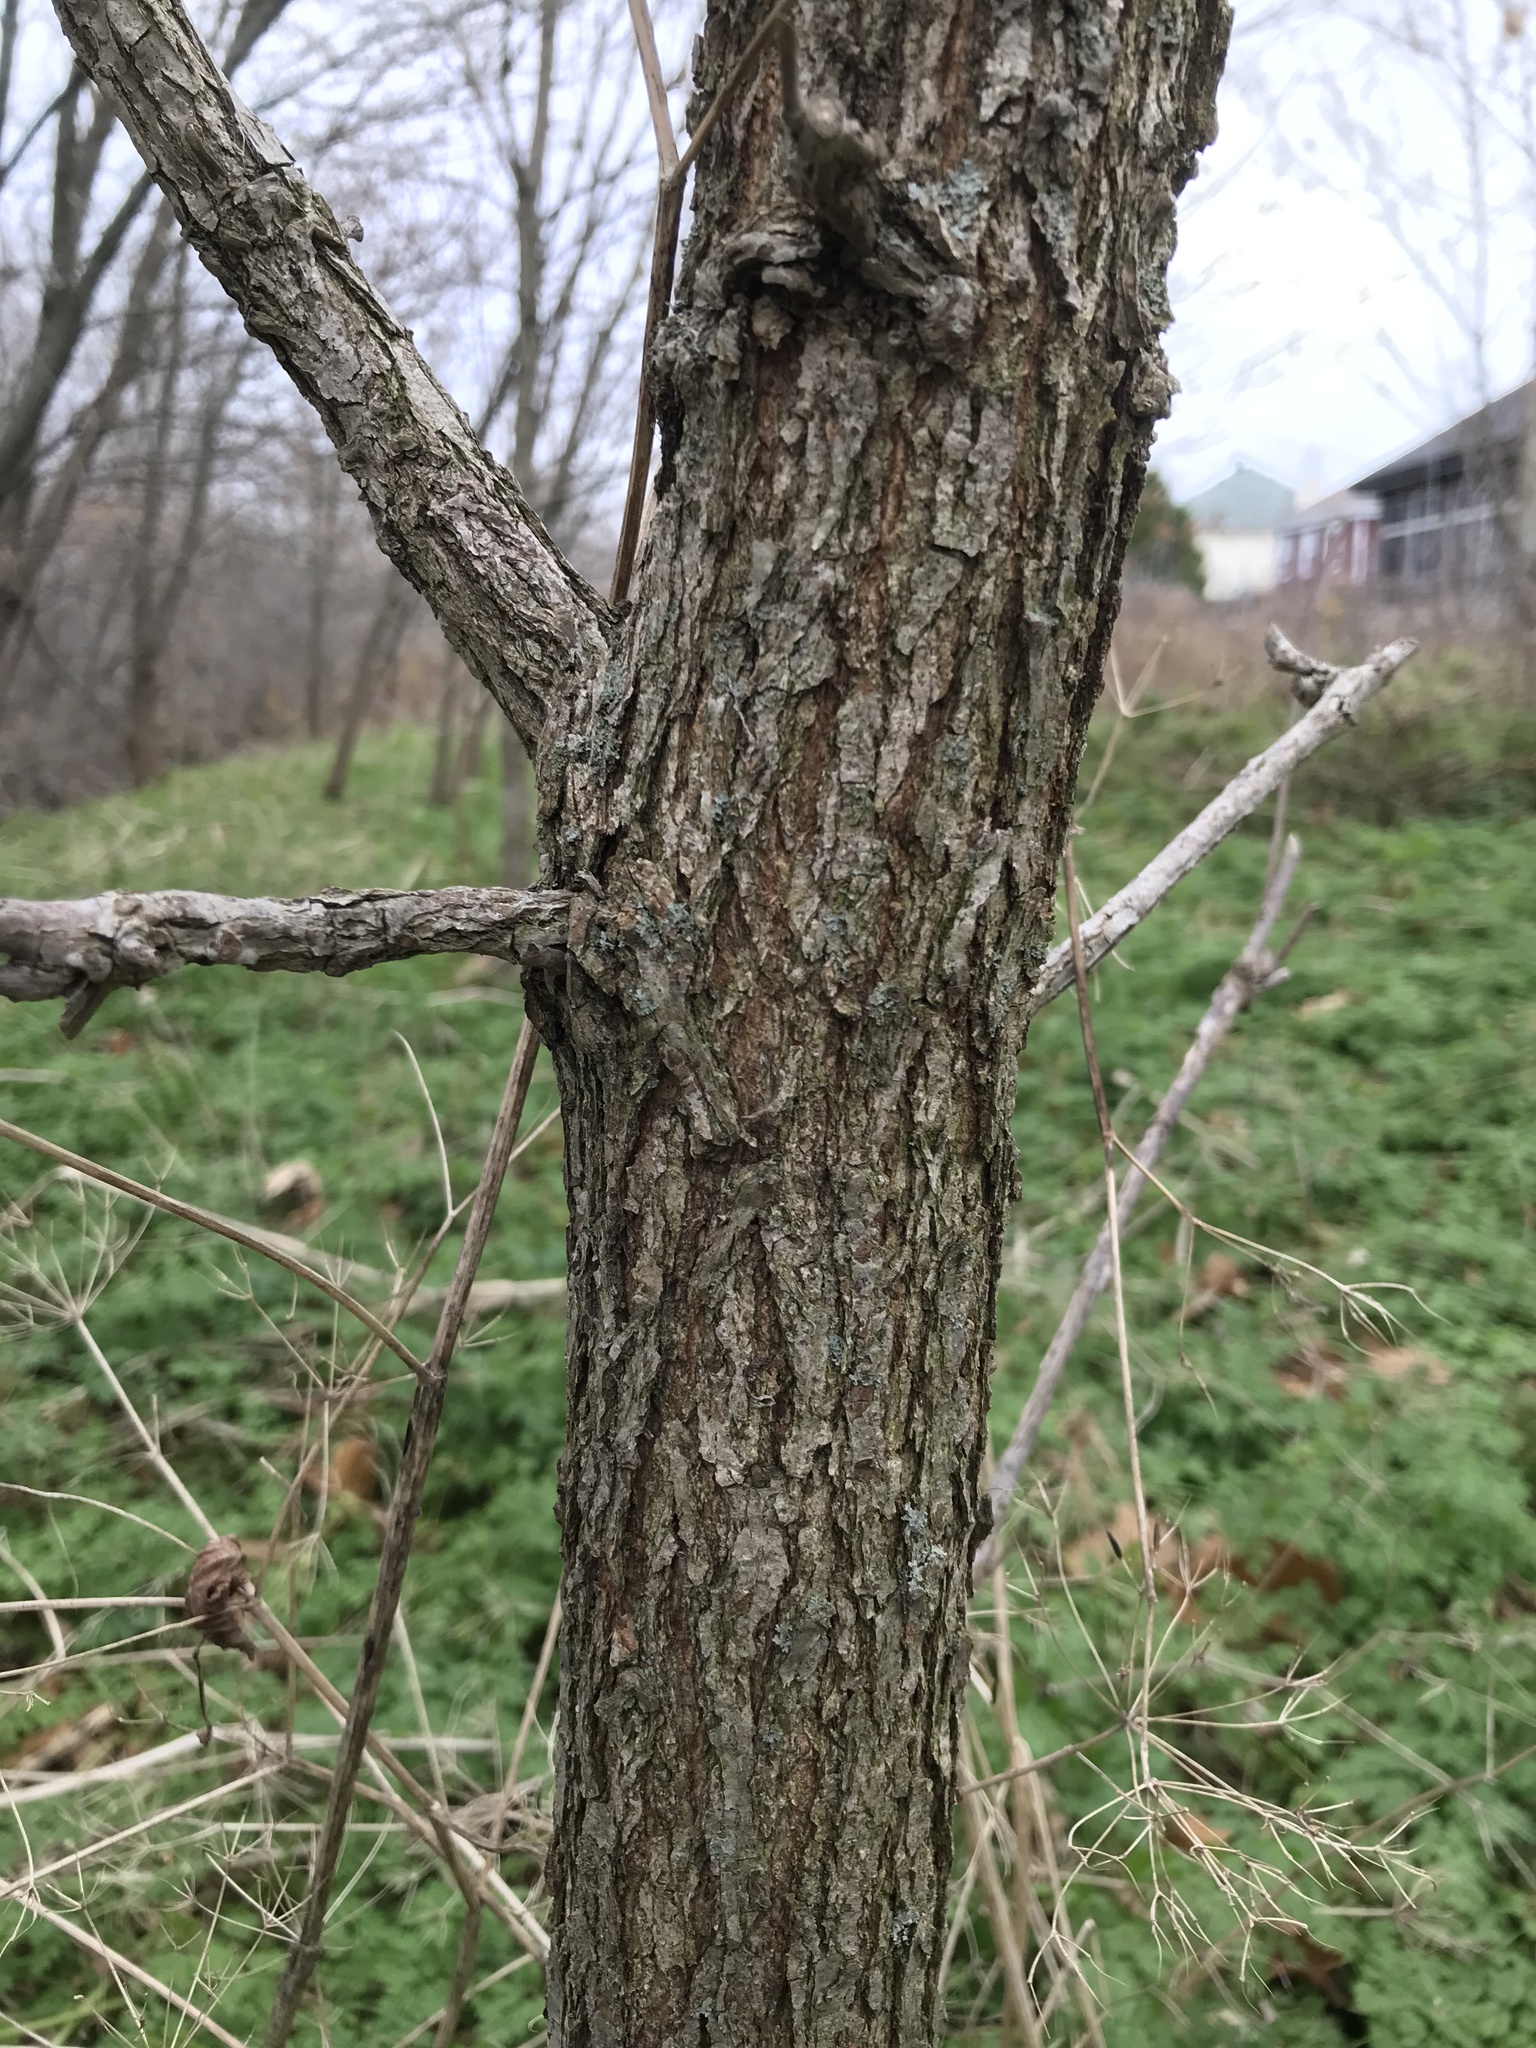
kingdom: Plantae
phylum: Tracheophyta
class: Magnoliopsida
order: Fagales
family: Fagaceae
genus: Quercus
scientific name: Quercus macrocarpa
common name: Bur oak
